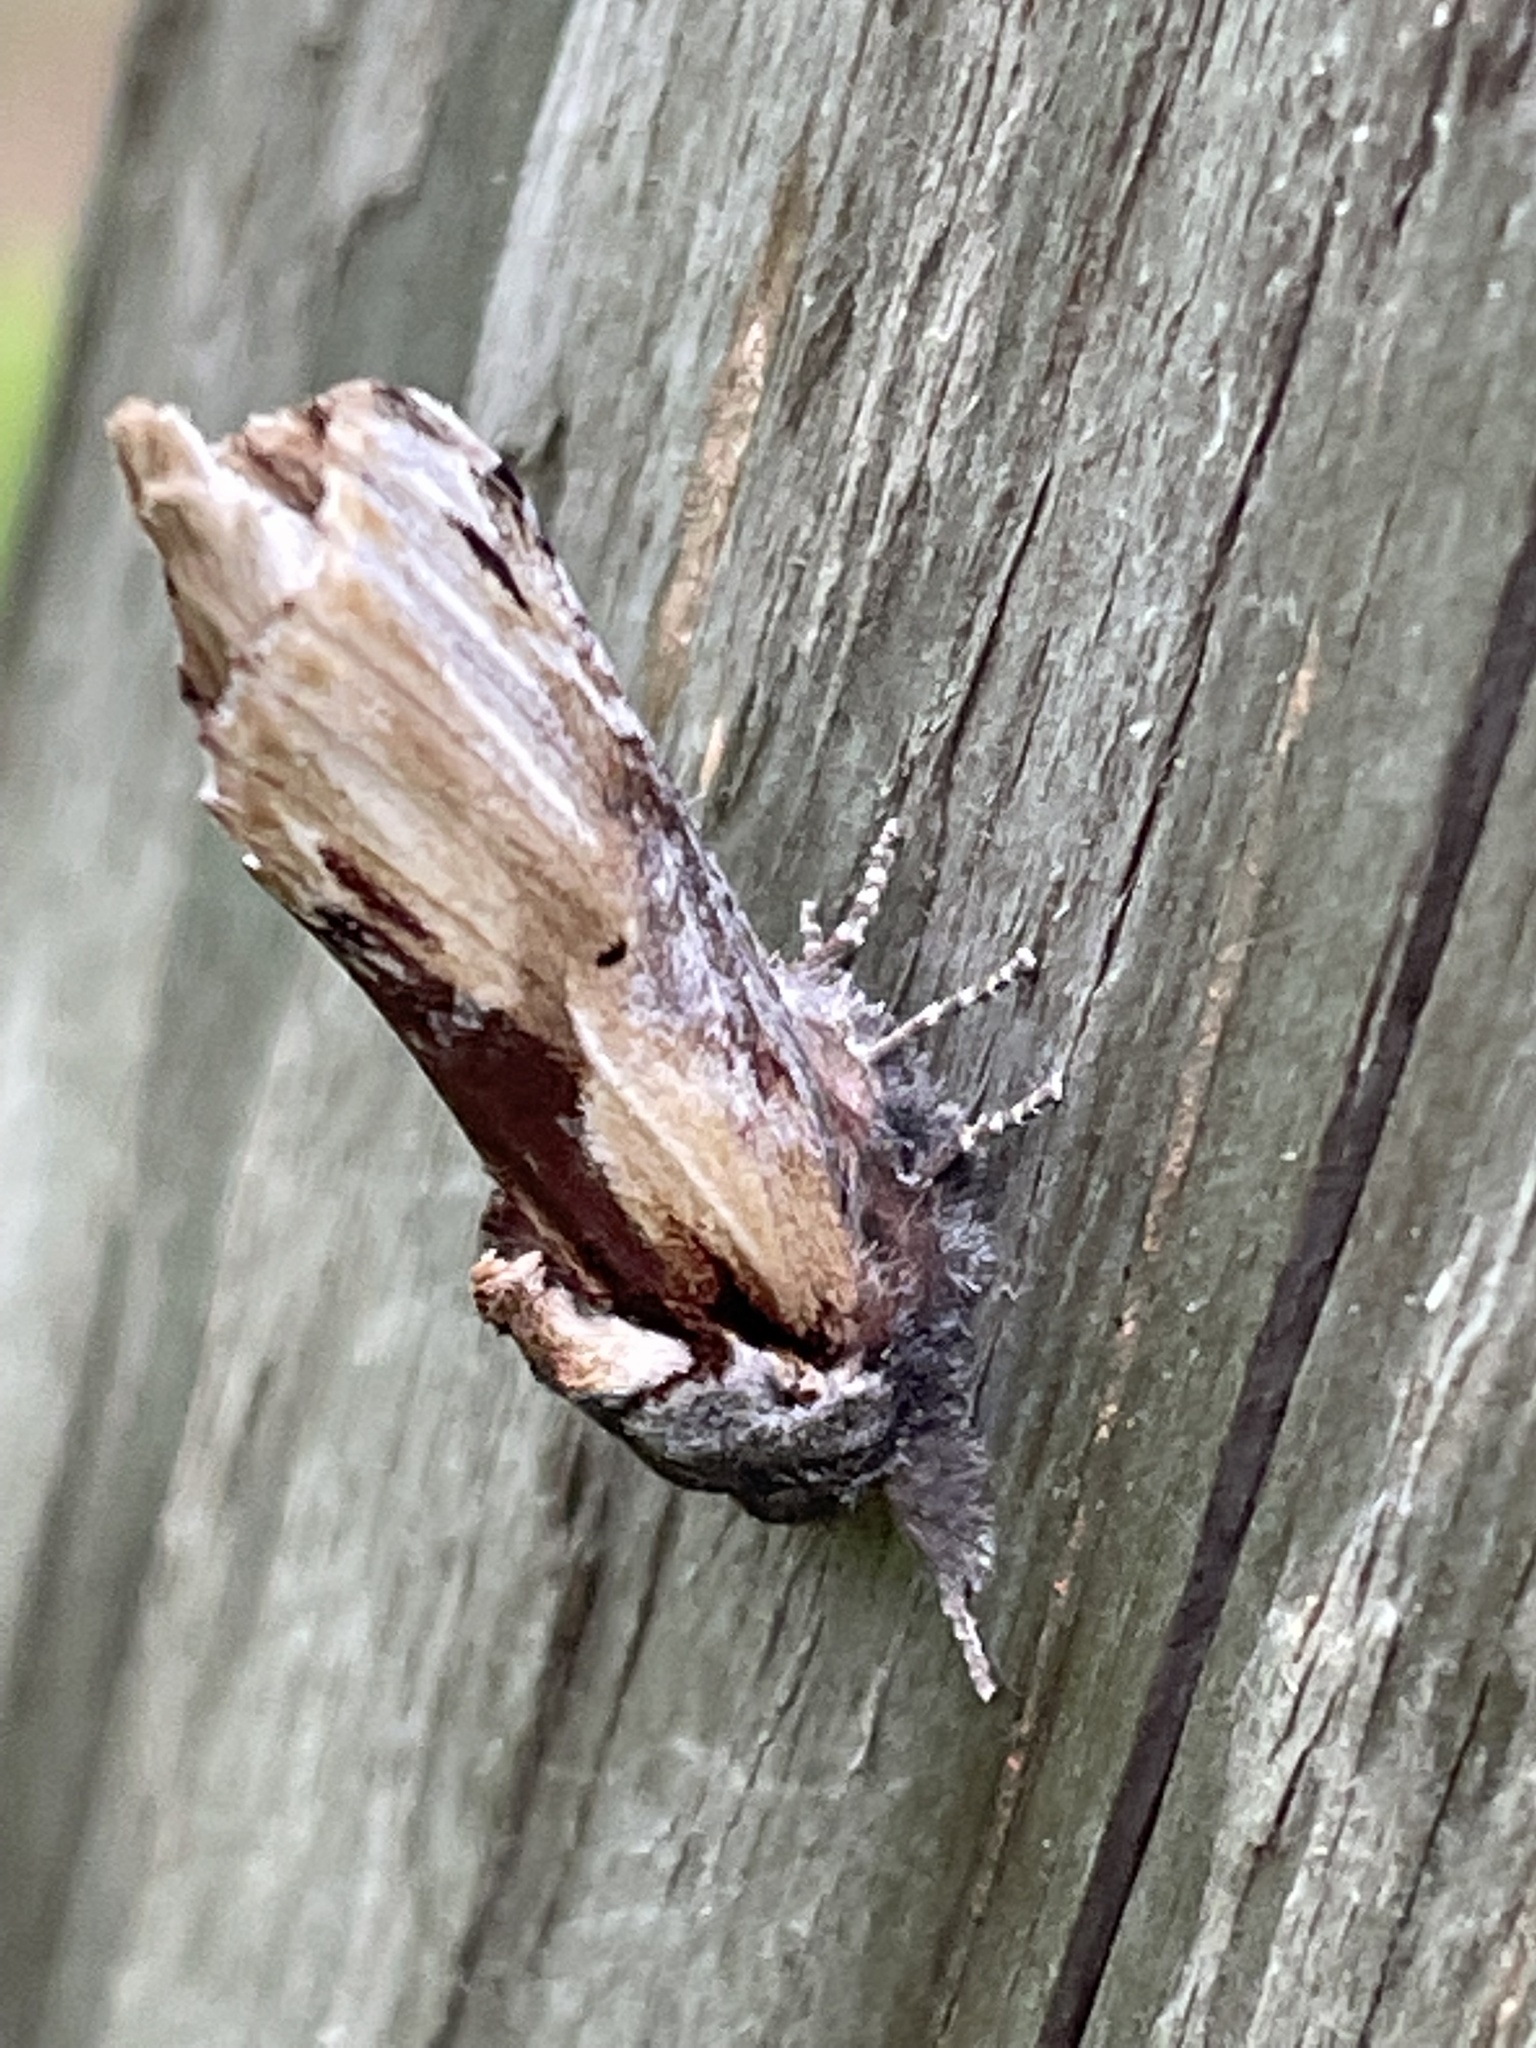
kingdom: Animalia
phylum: Arthropoda
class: Insecta
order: Lepidoptera
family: Notodontidae
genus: Schizura
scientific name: Schizura
